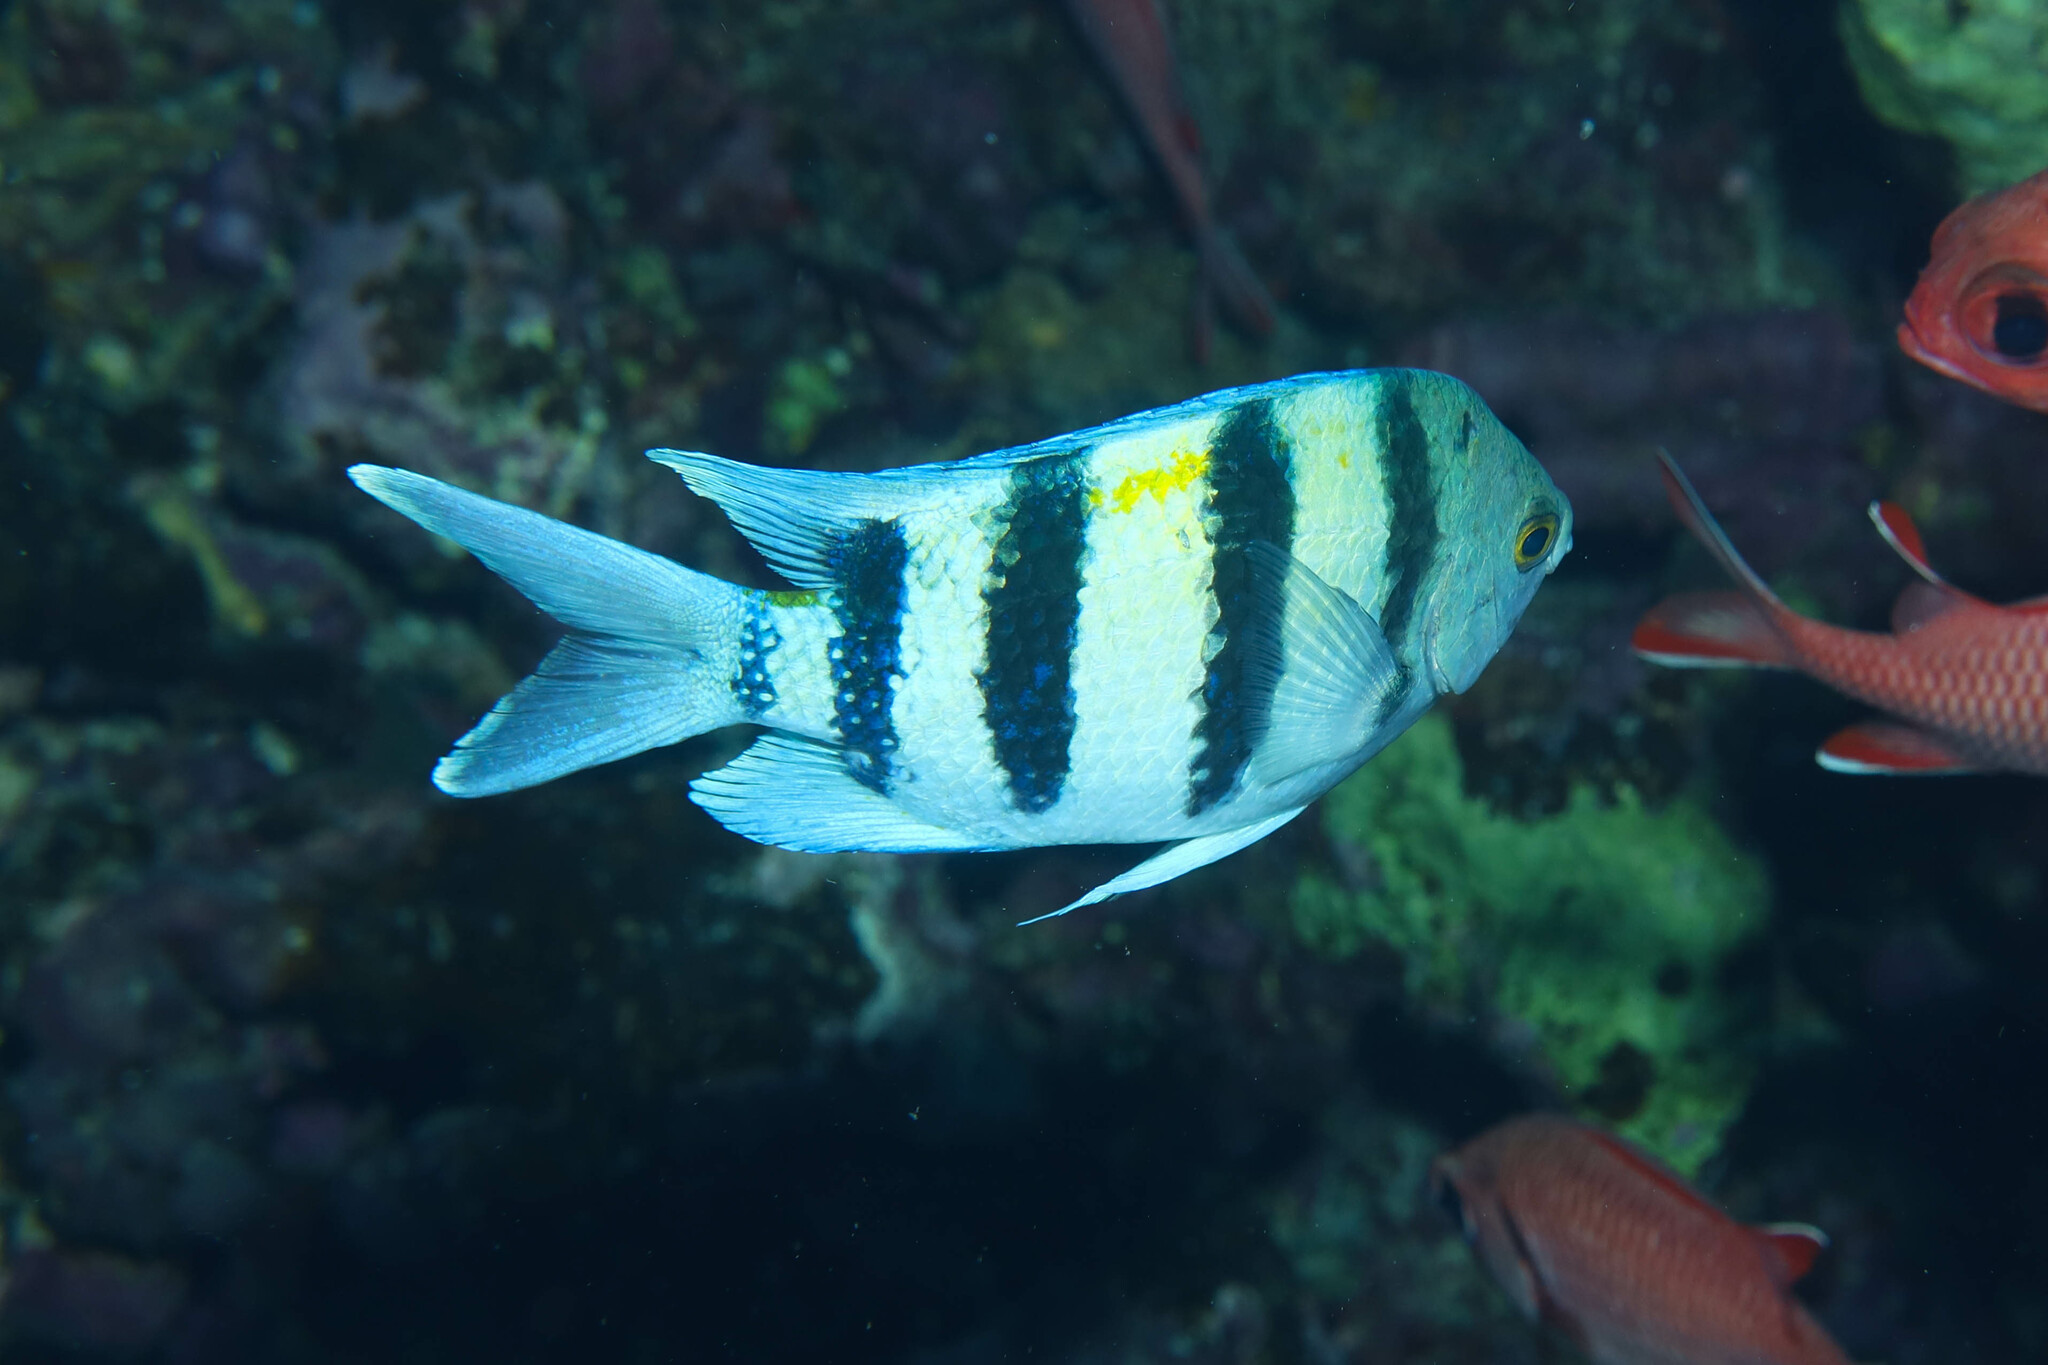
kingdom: Animalia
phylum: Chordata
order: Perciformes
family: Pomacentridae
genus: Abudefduf
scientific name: Abudefduf vaigiensis
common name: Indo-pacific sergeant
